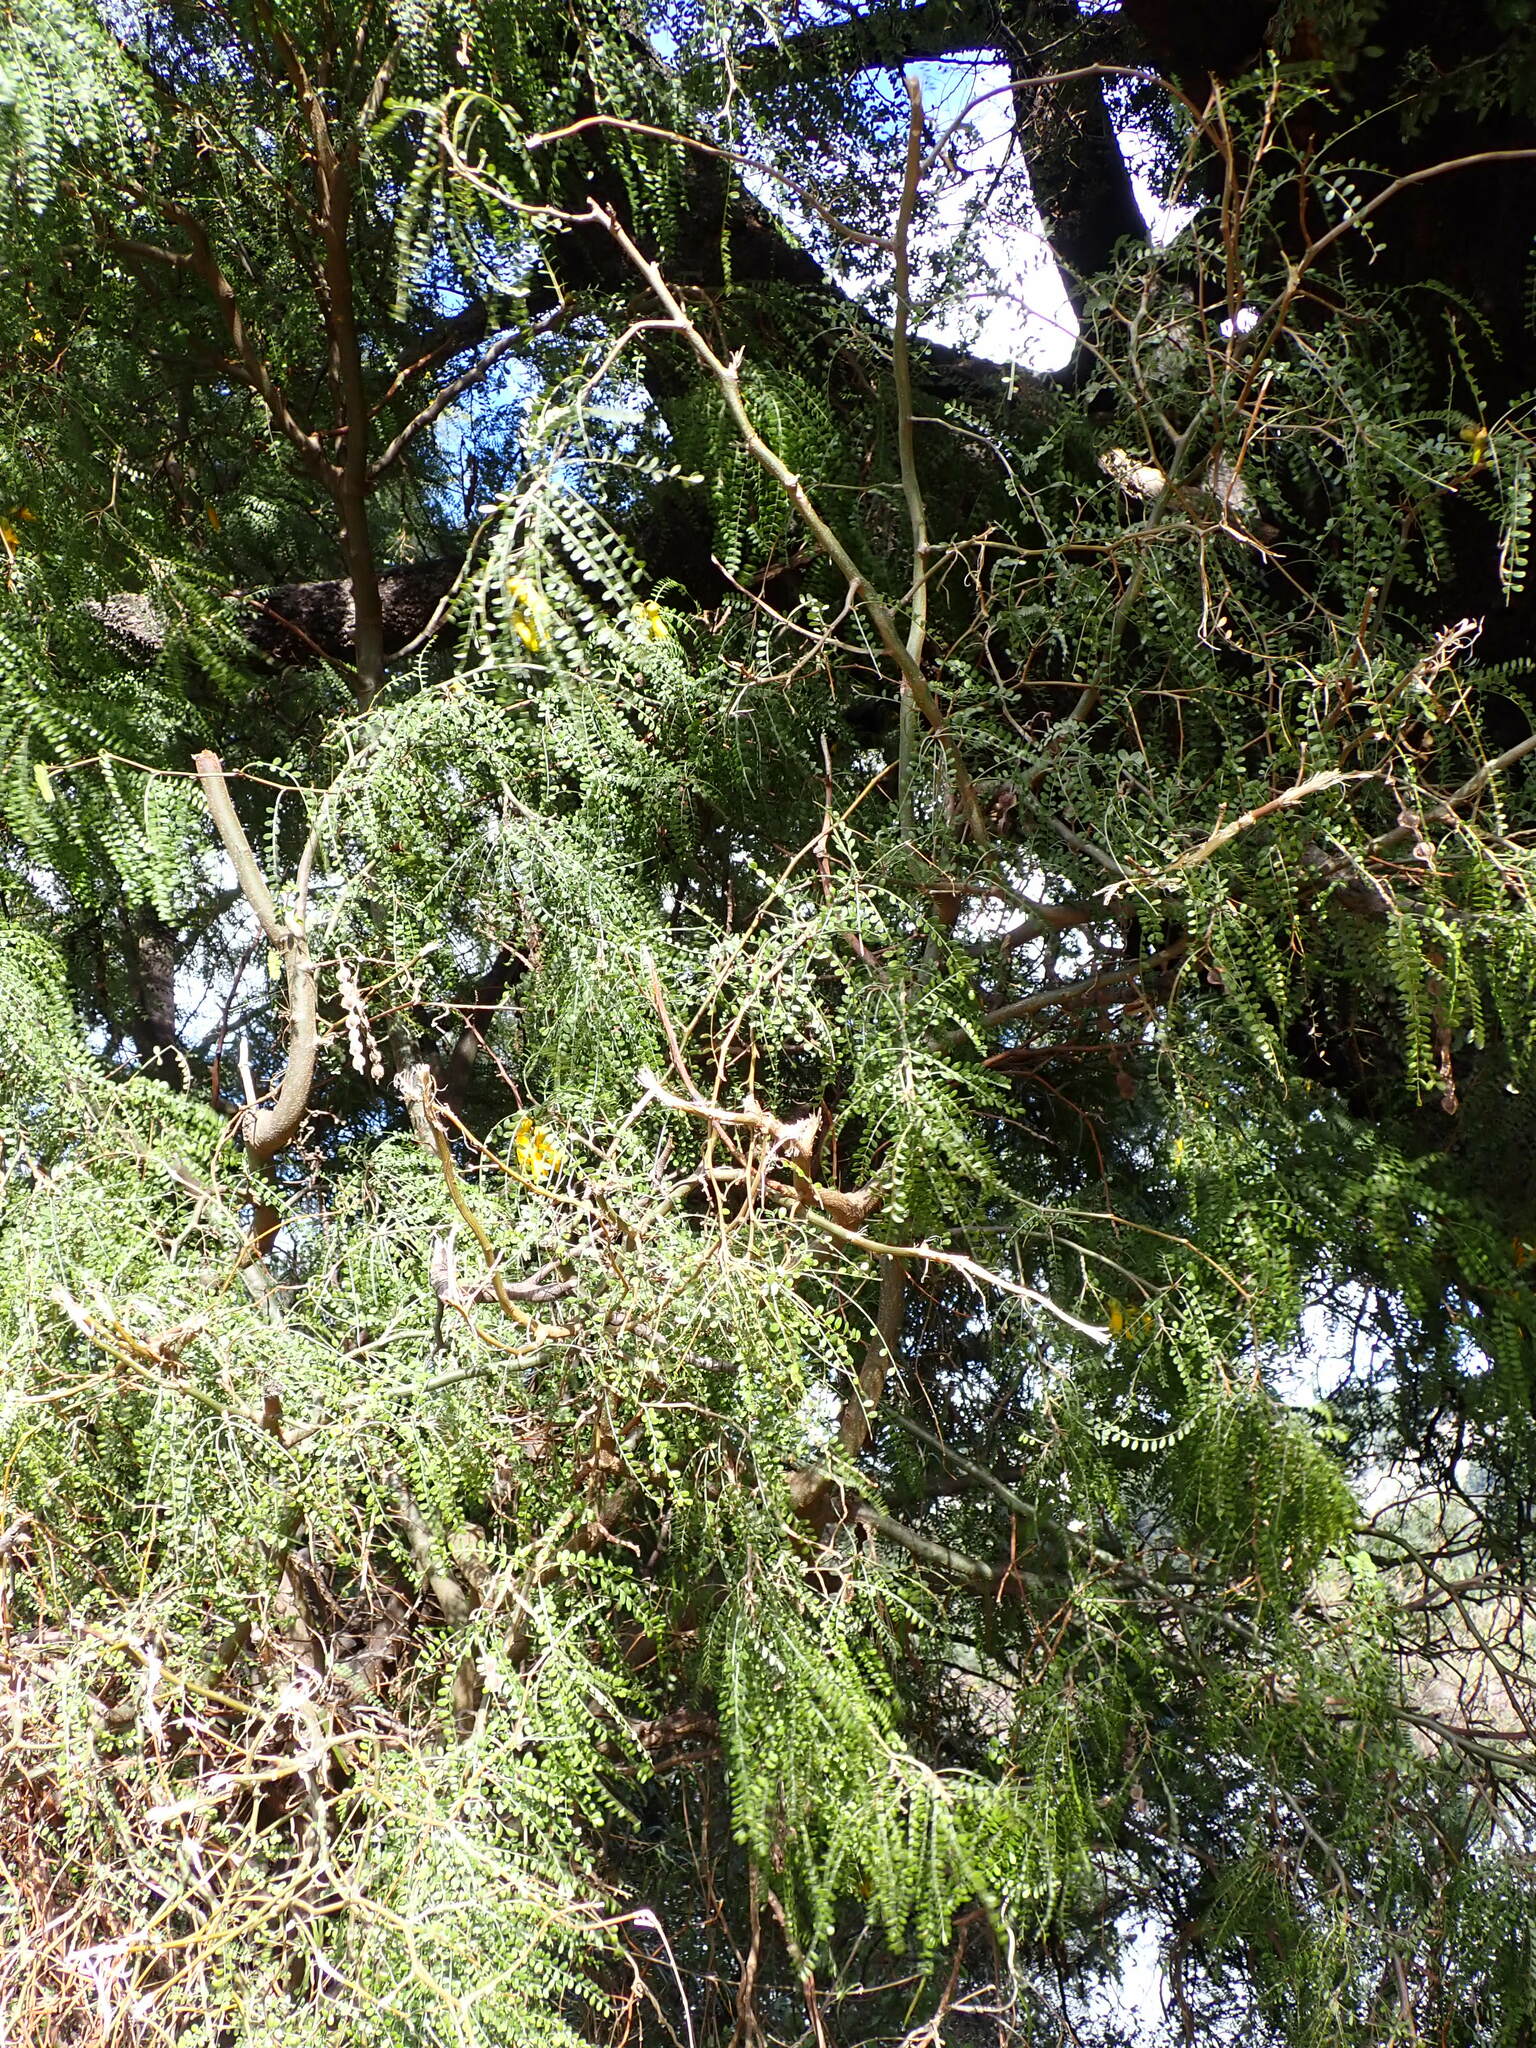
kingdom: Plantae
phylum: Tracheophyta
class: Magnoliopsida
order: Fabales
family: Fabaceae
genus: Sophora
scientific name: Sophora microphylla
